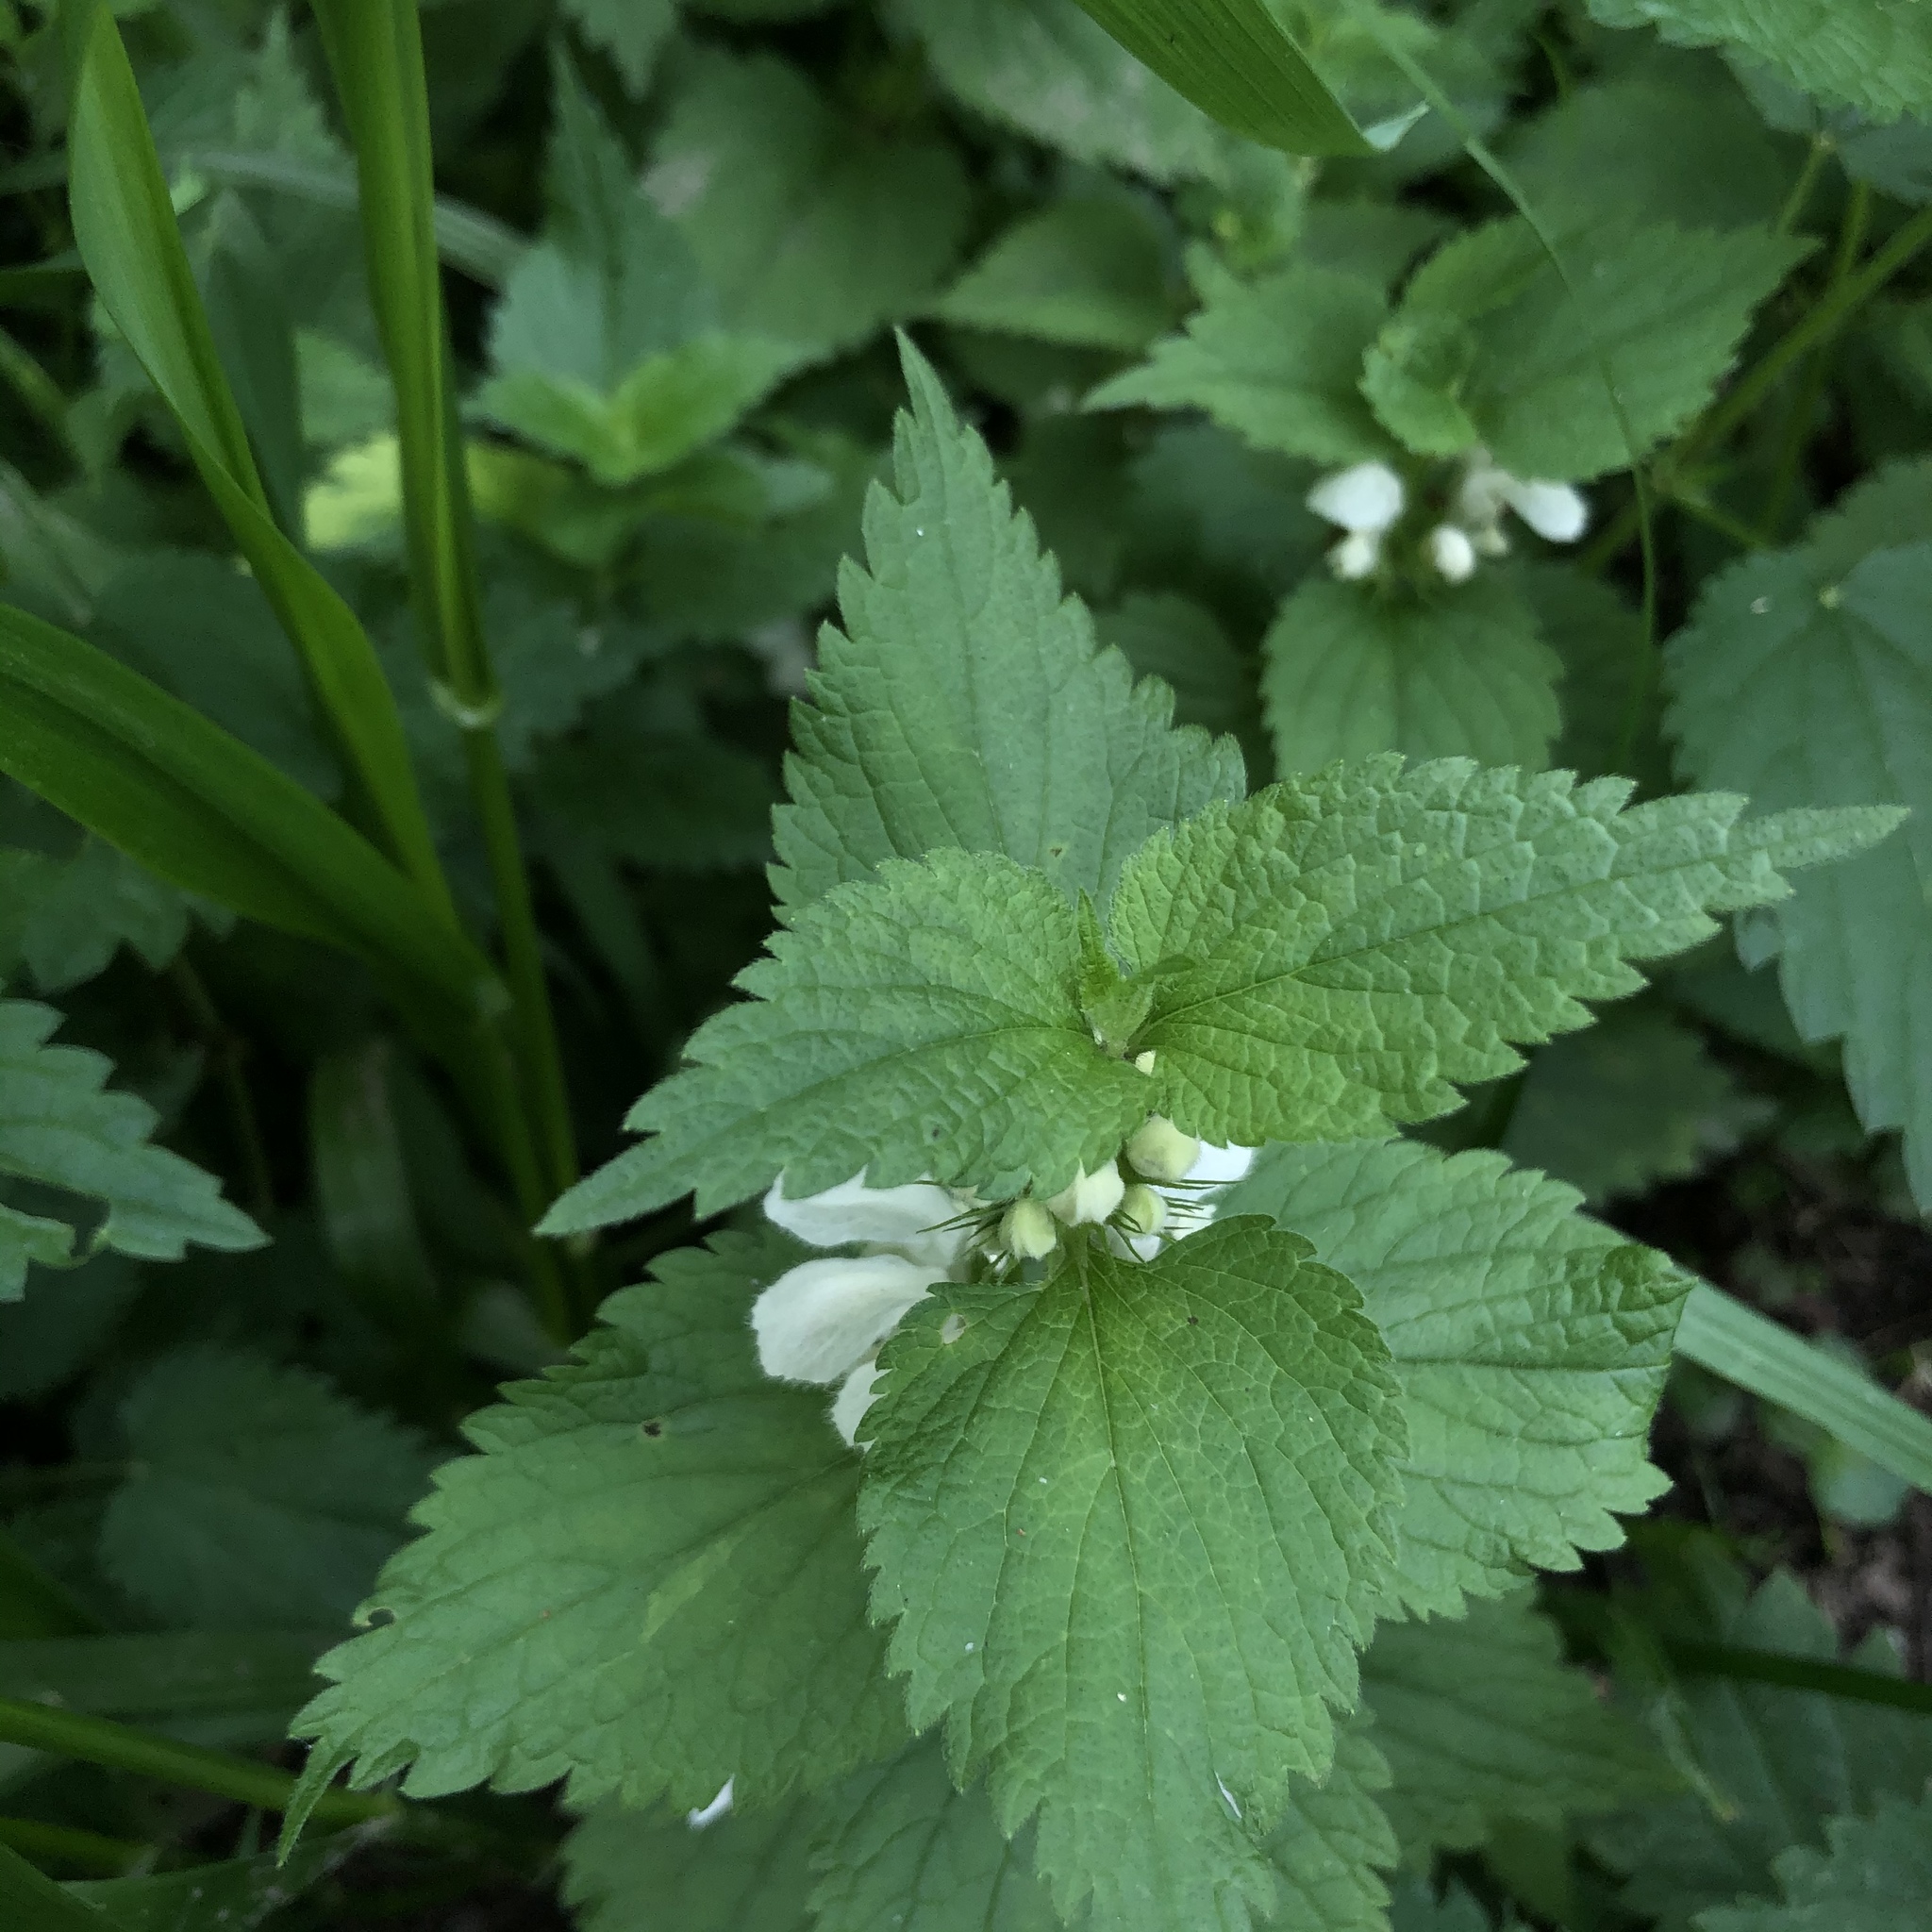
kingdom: Plantae
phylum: Tracheophyta
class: Magnoliopsida
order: Lamiales
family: Lamiaceae
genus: Lamium
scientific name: Lamium album
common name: White dead-nettle
